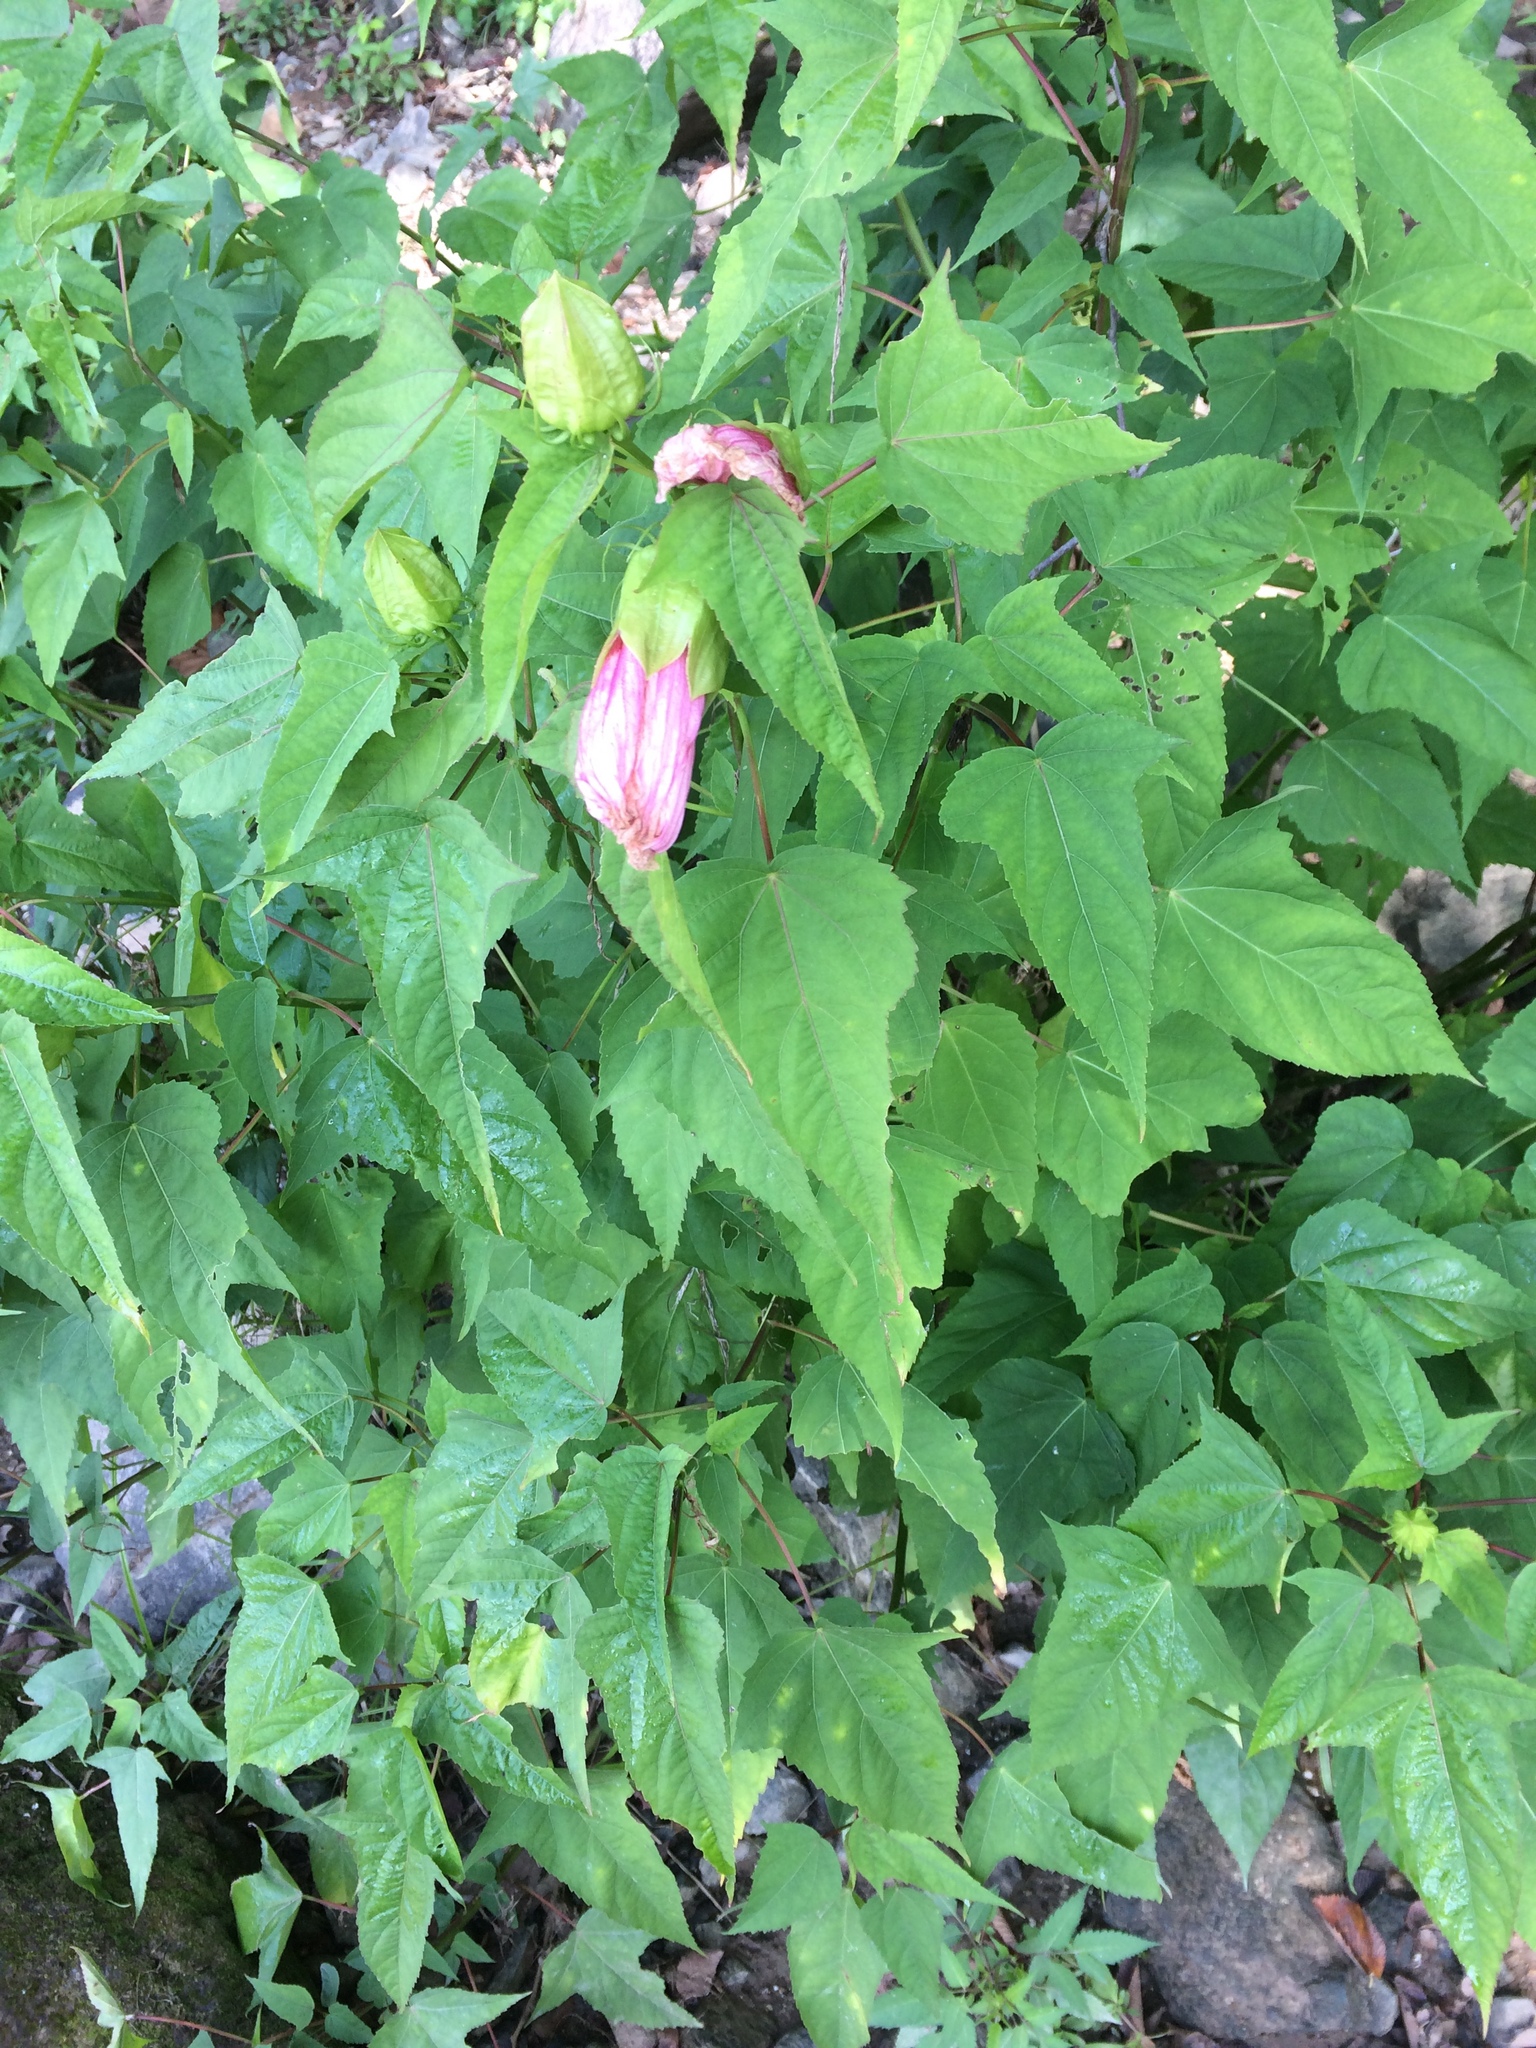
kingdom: Plantae
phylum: Tracheophyta
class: Magnoliopsida
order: Malvales
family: Malvaceae
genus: Hibiscus
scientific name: Hibiscus laevis
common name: Scarlet rose-mallow
